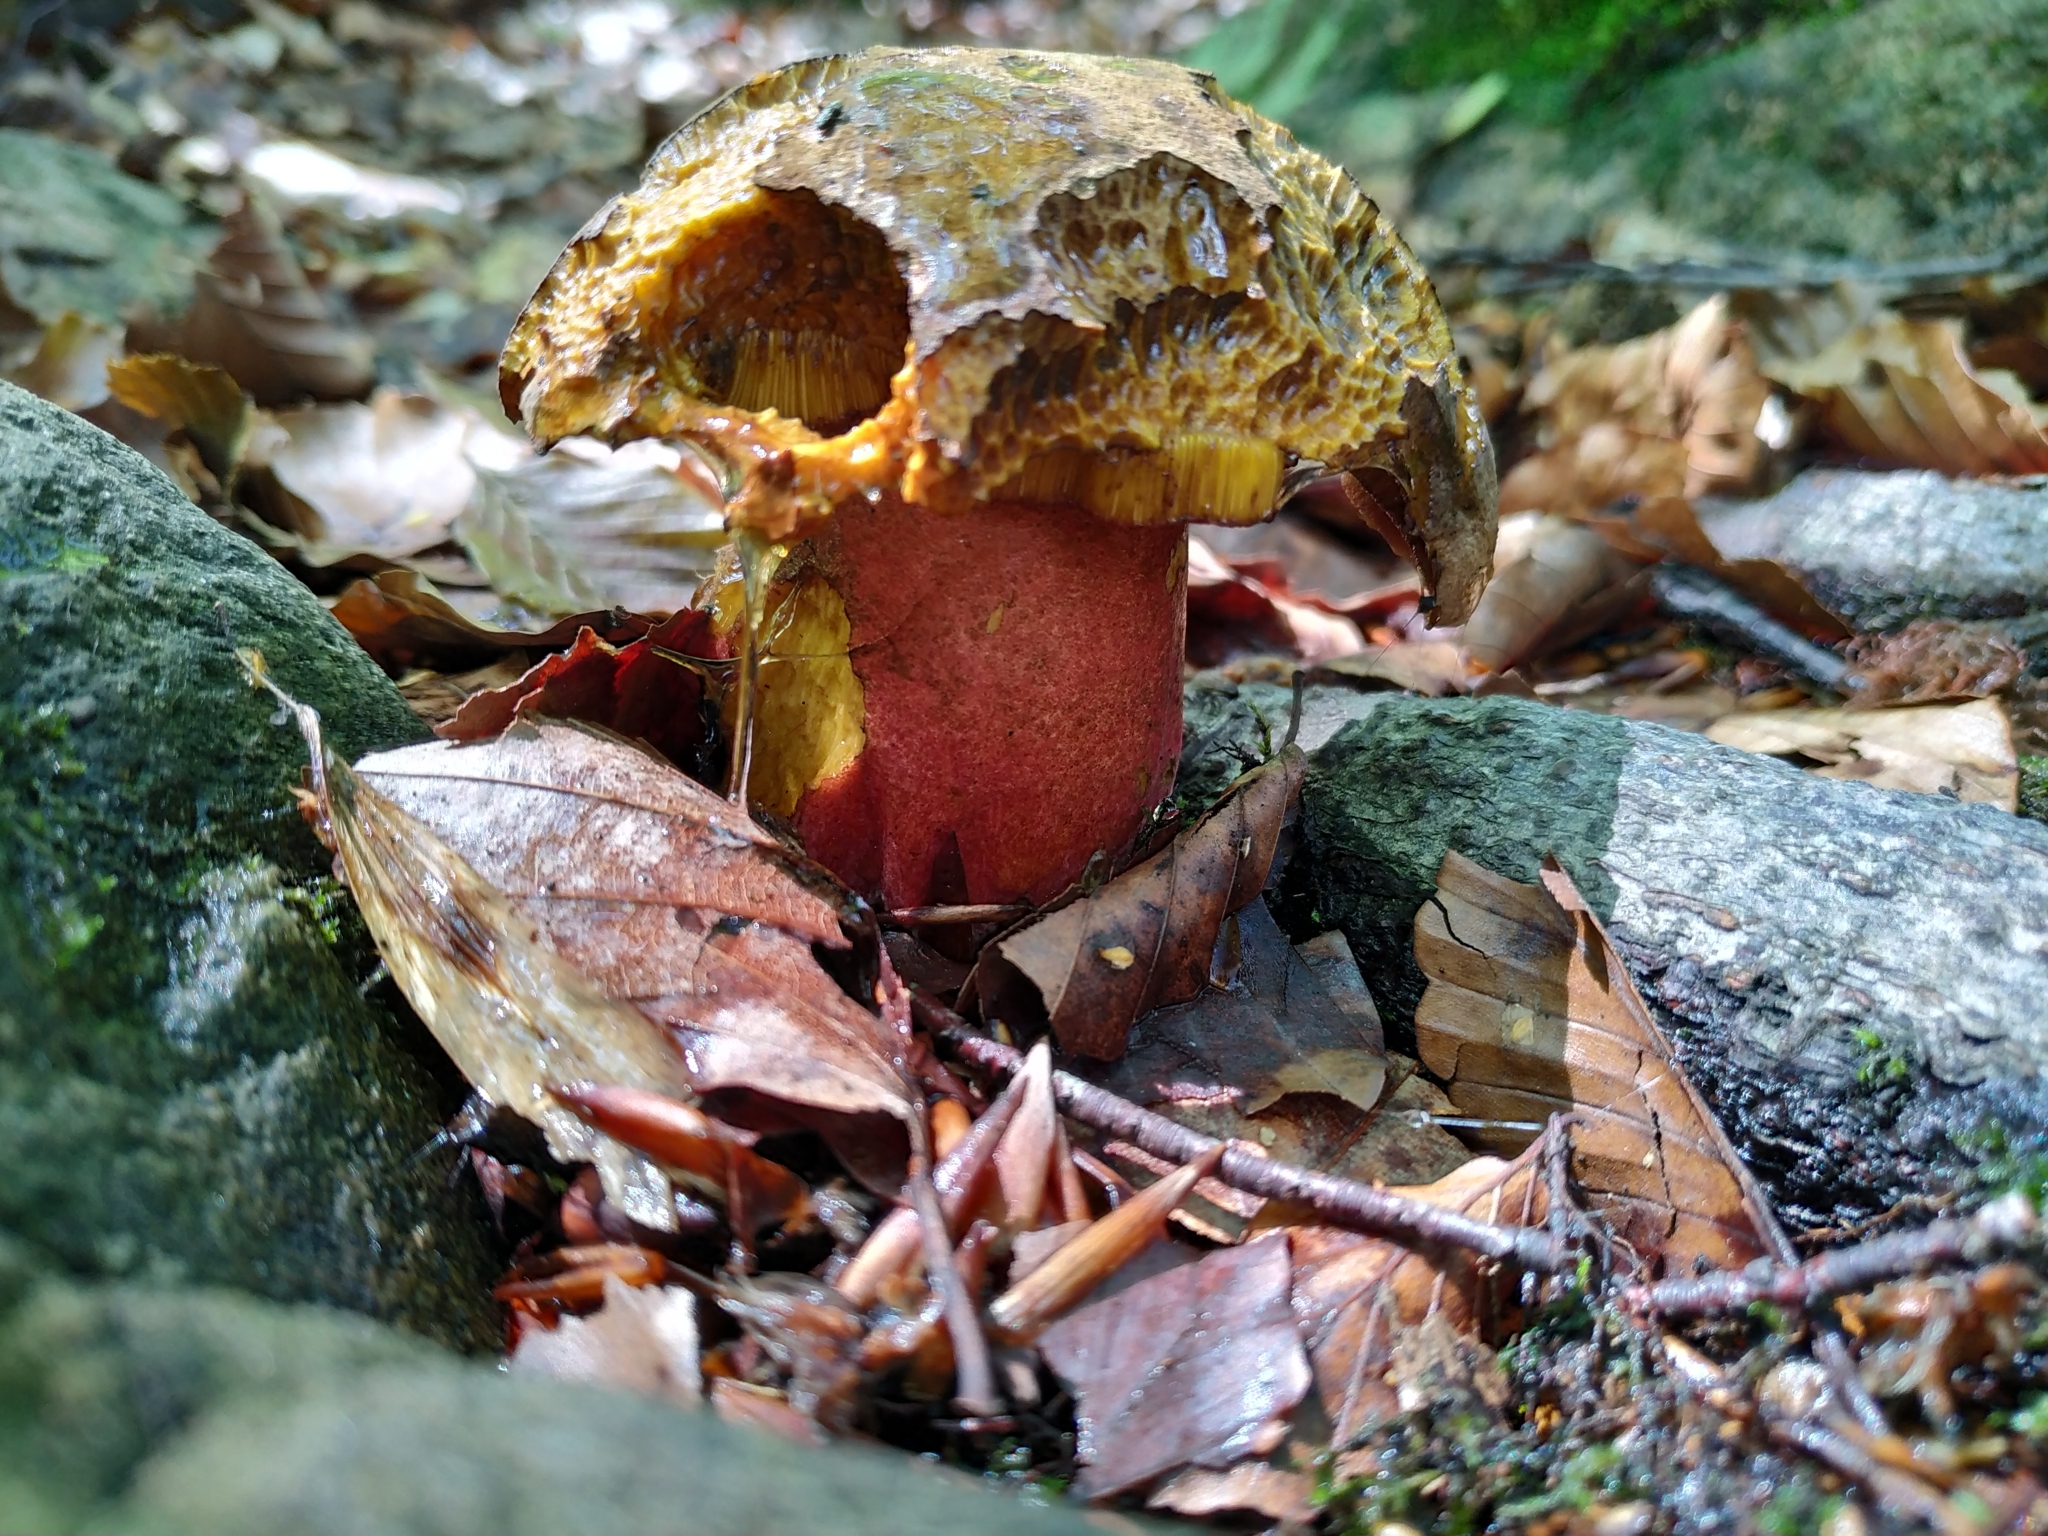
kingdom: Fungi
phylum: Basidiomycota
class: Agaricomycetes
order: Boletales
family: Boletaceae
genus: Neoboletus
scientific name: Neoboletus luridiformis
